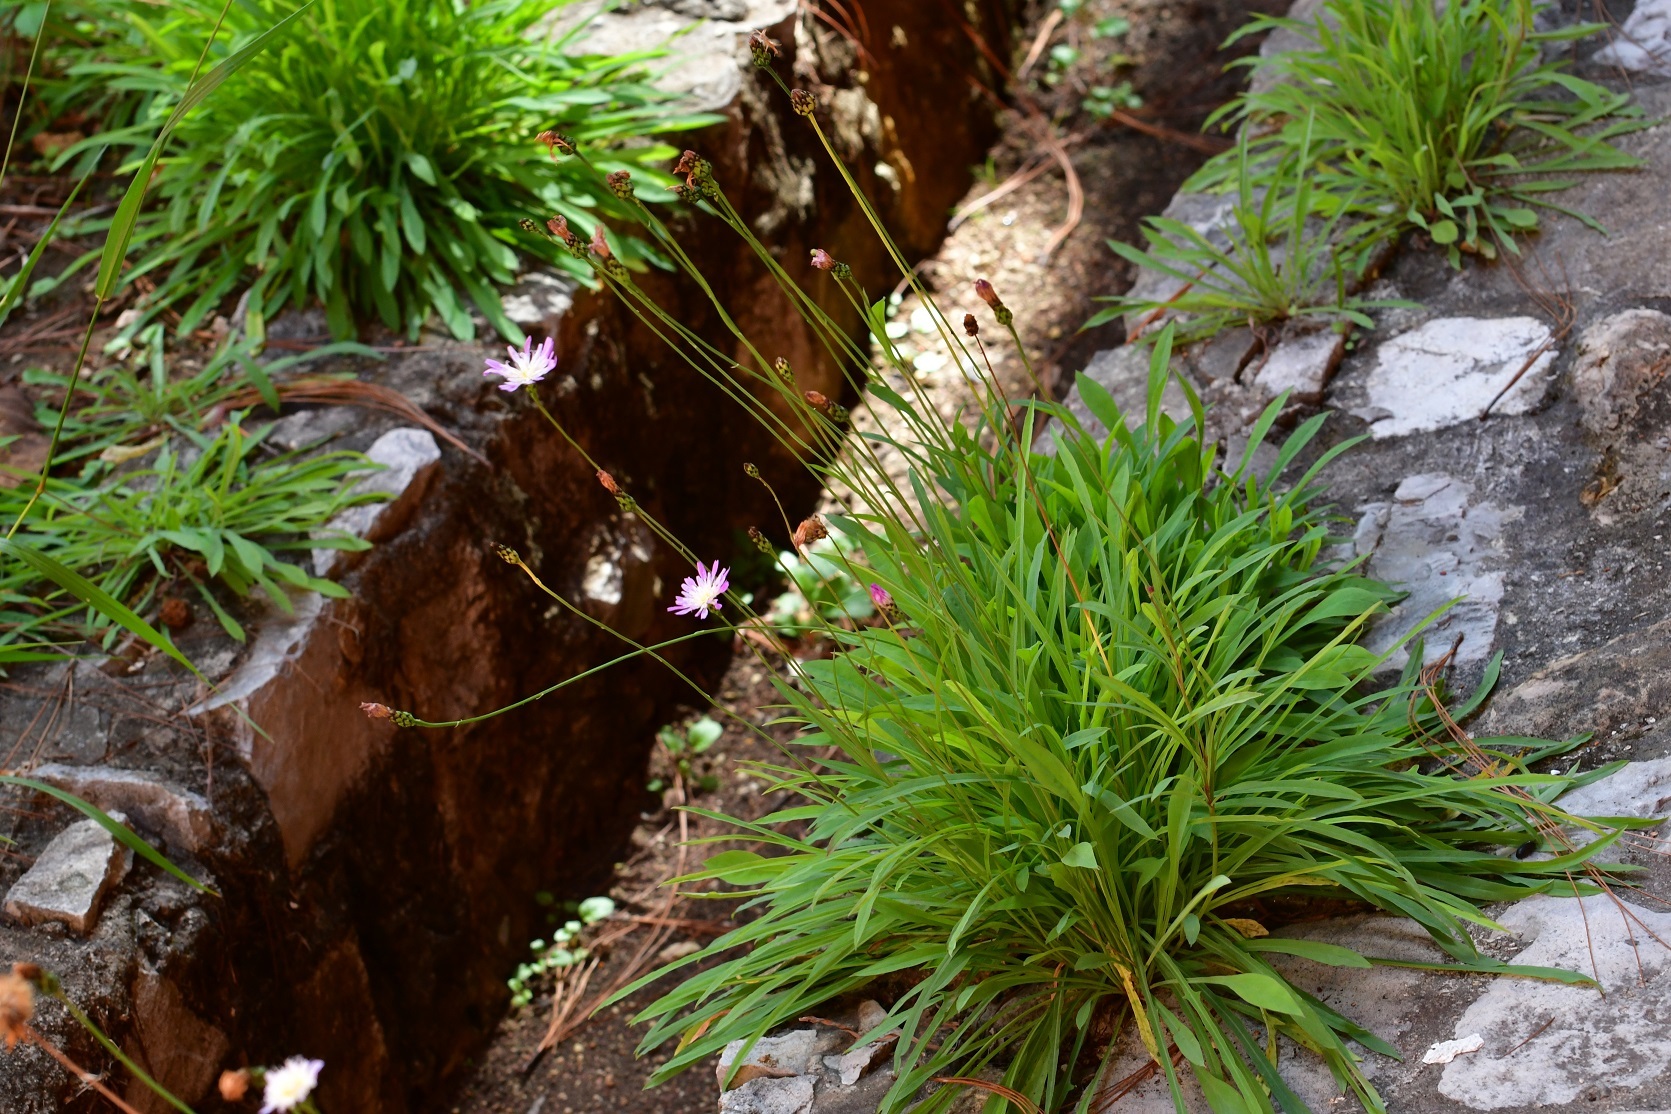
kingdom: Plantae
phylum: Tracheophyta
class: Magnoliopsida
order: Asterales
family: Asteraceae
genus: Pinaropappus
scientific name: Pinaropappus spathulatus
